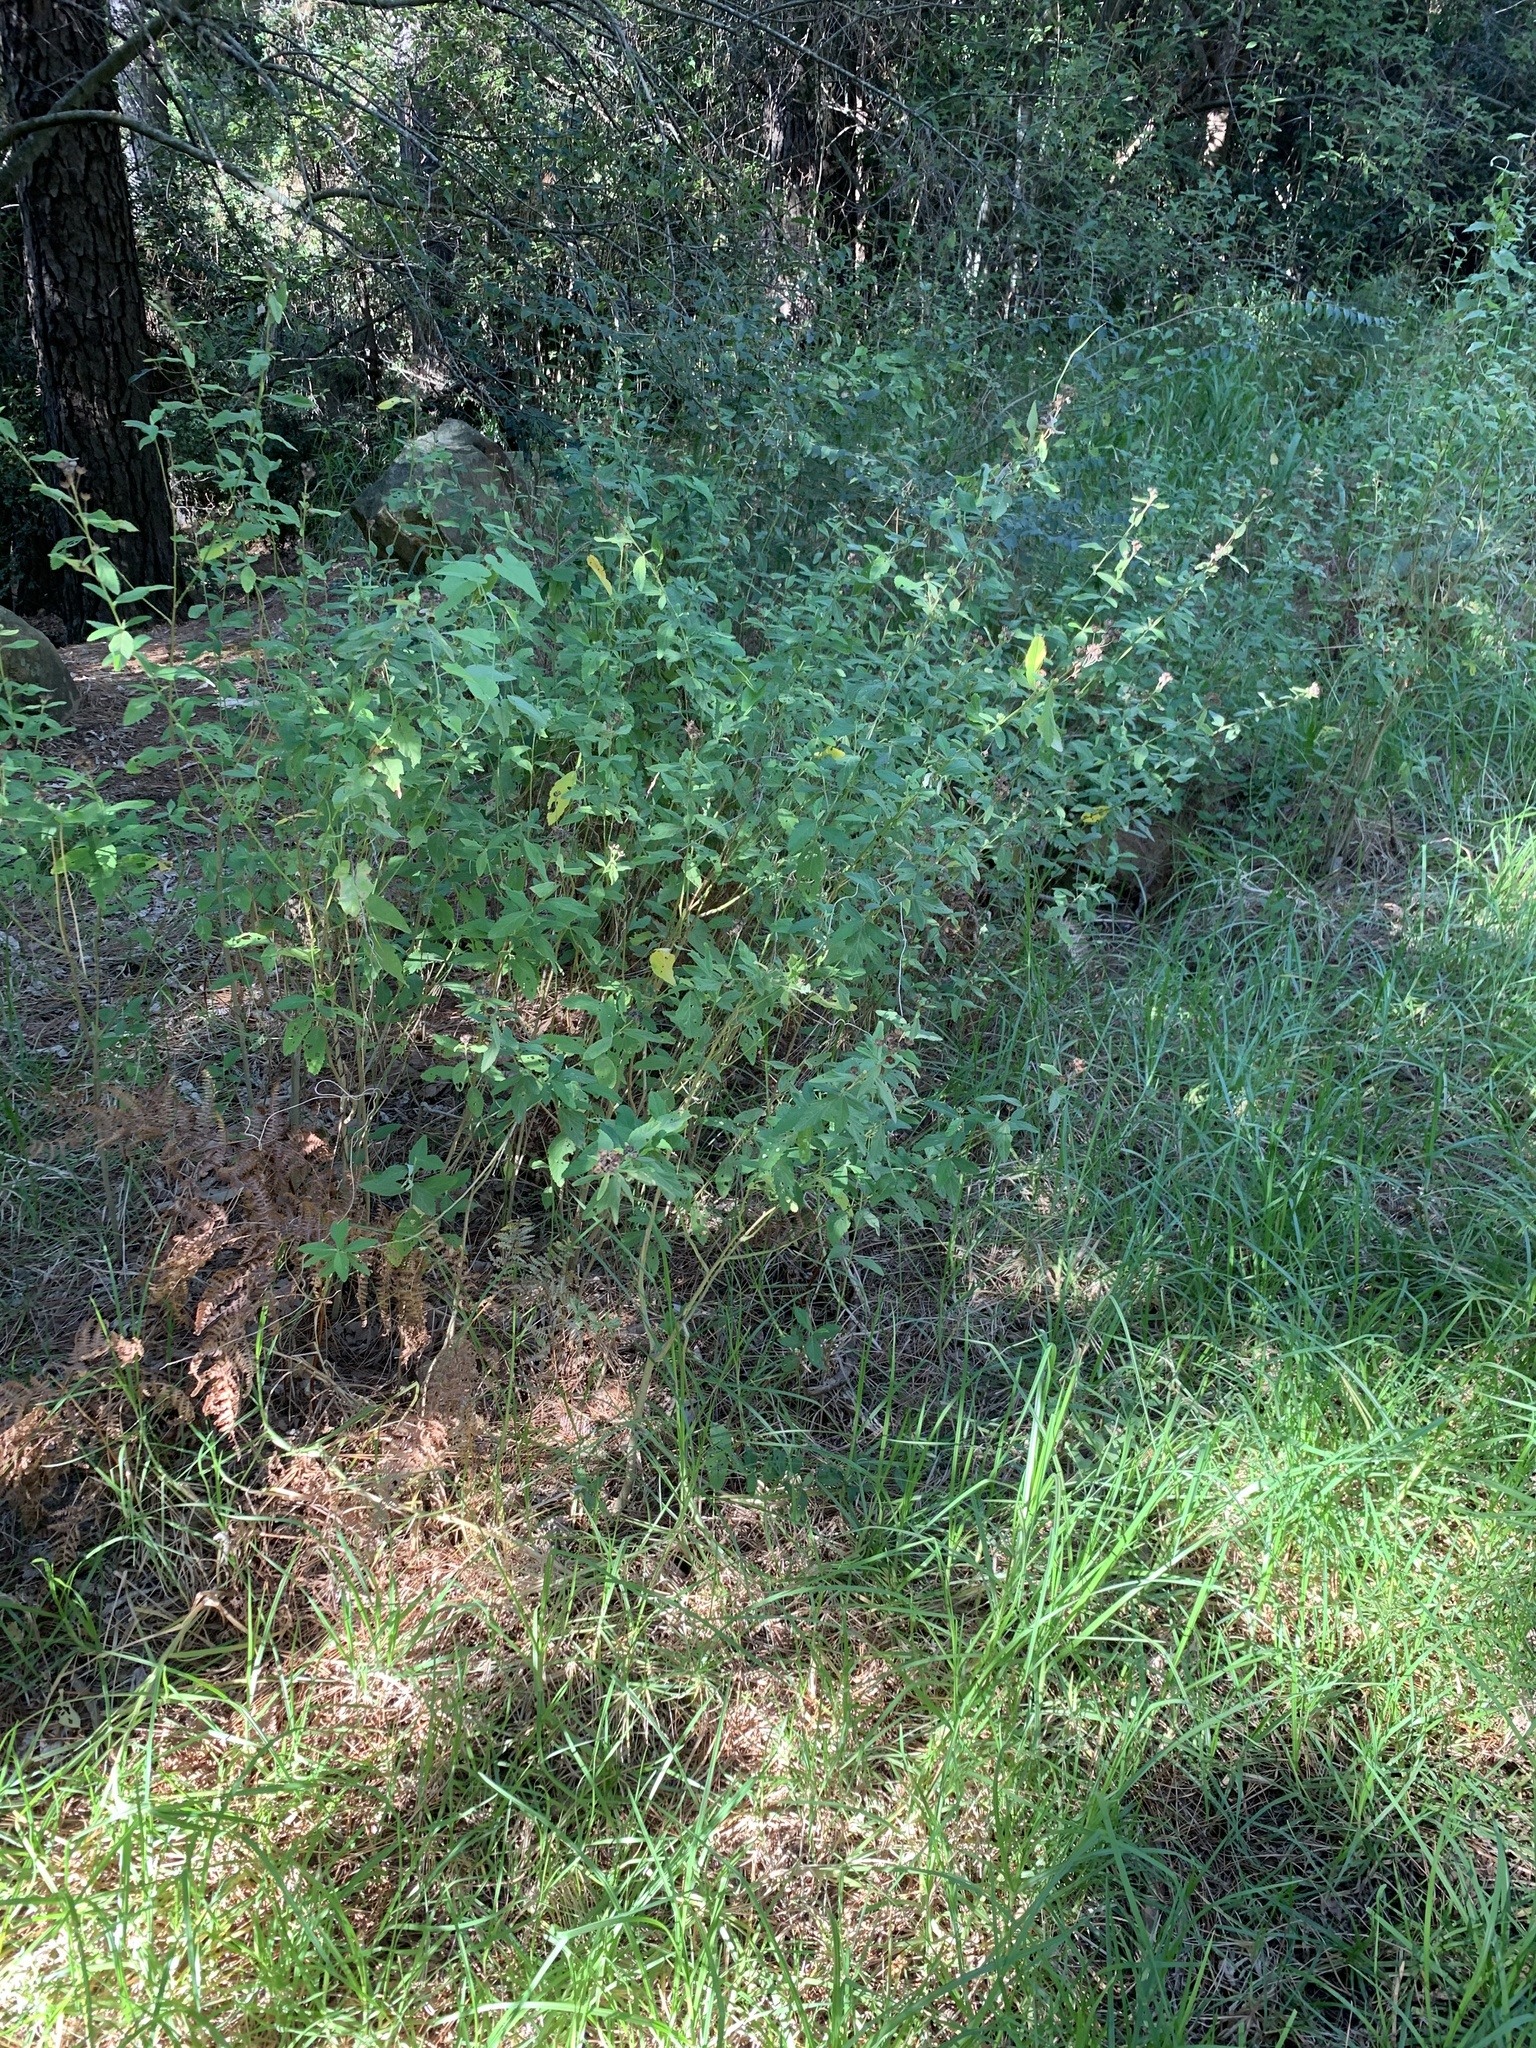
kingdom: Plantae
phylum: Tracheophyta
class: Magnoliopsida
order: Malvales
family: Malvaceae
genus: Sida
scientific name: Sida rhombifolia
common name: Queensland-hemp
